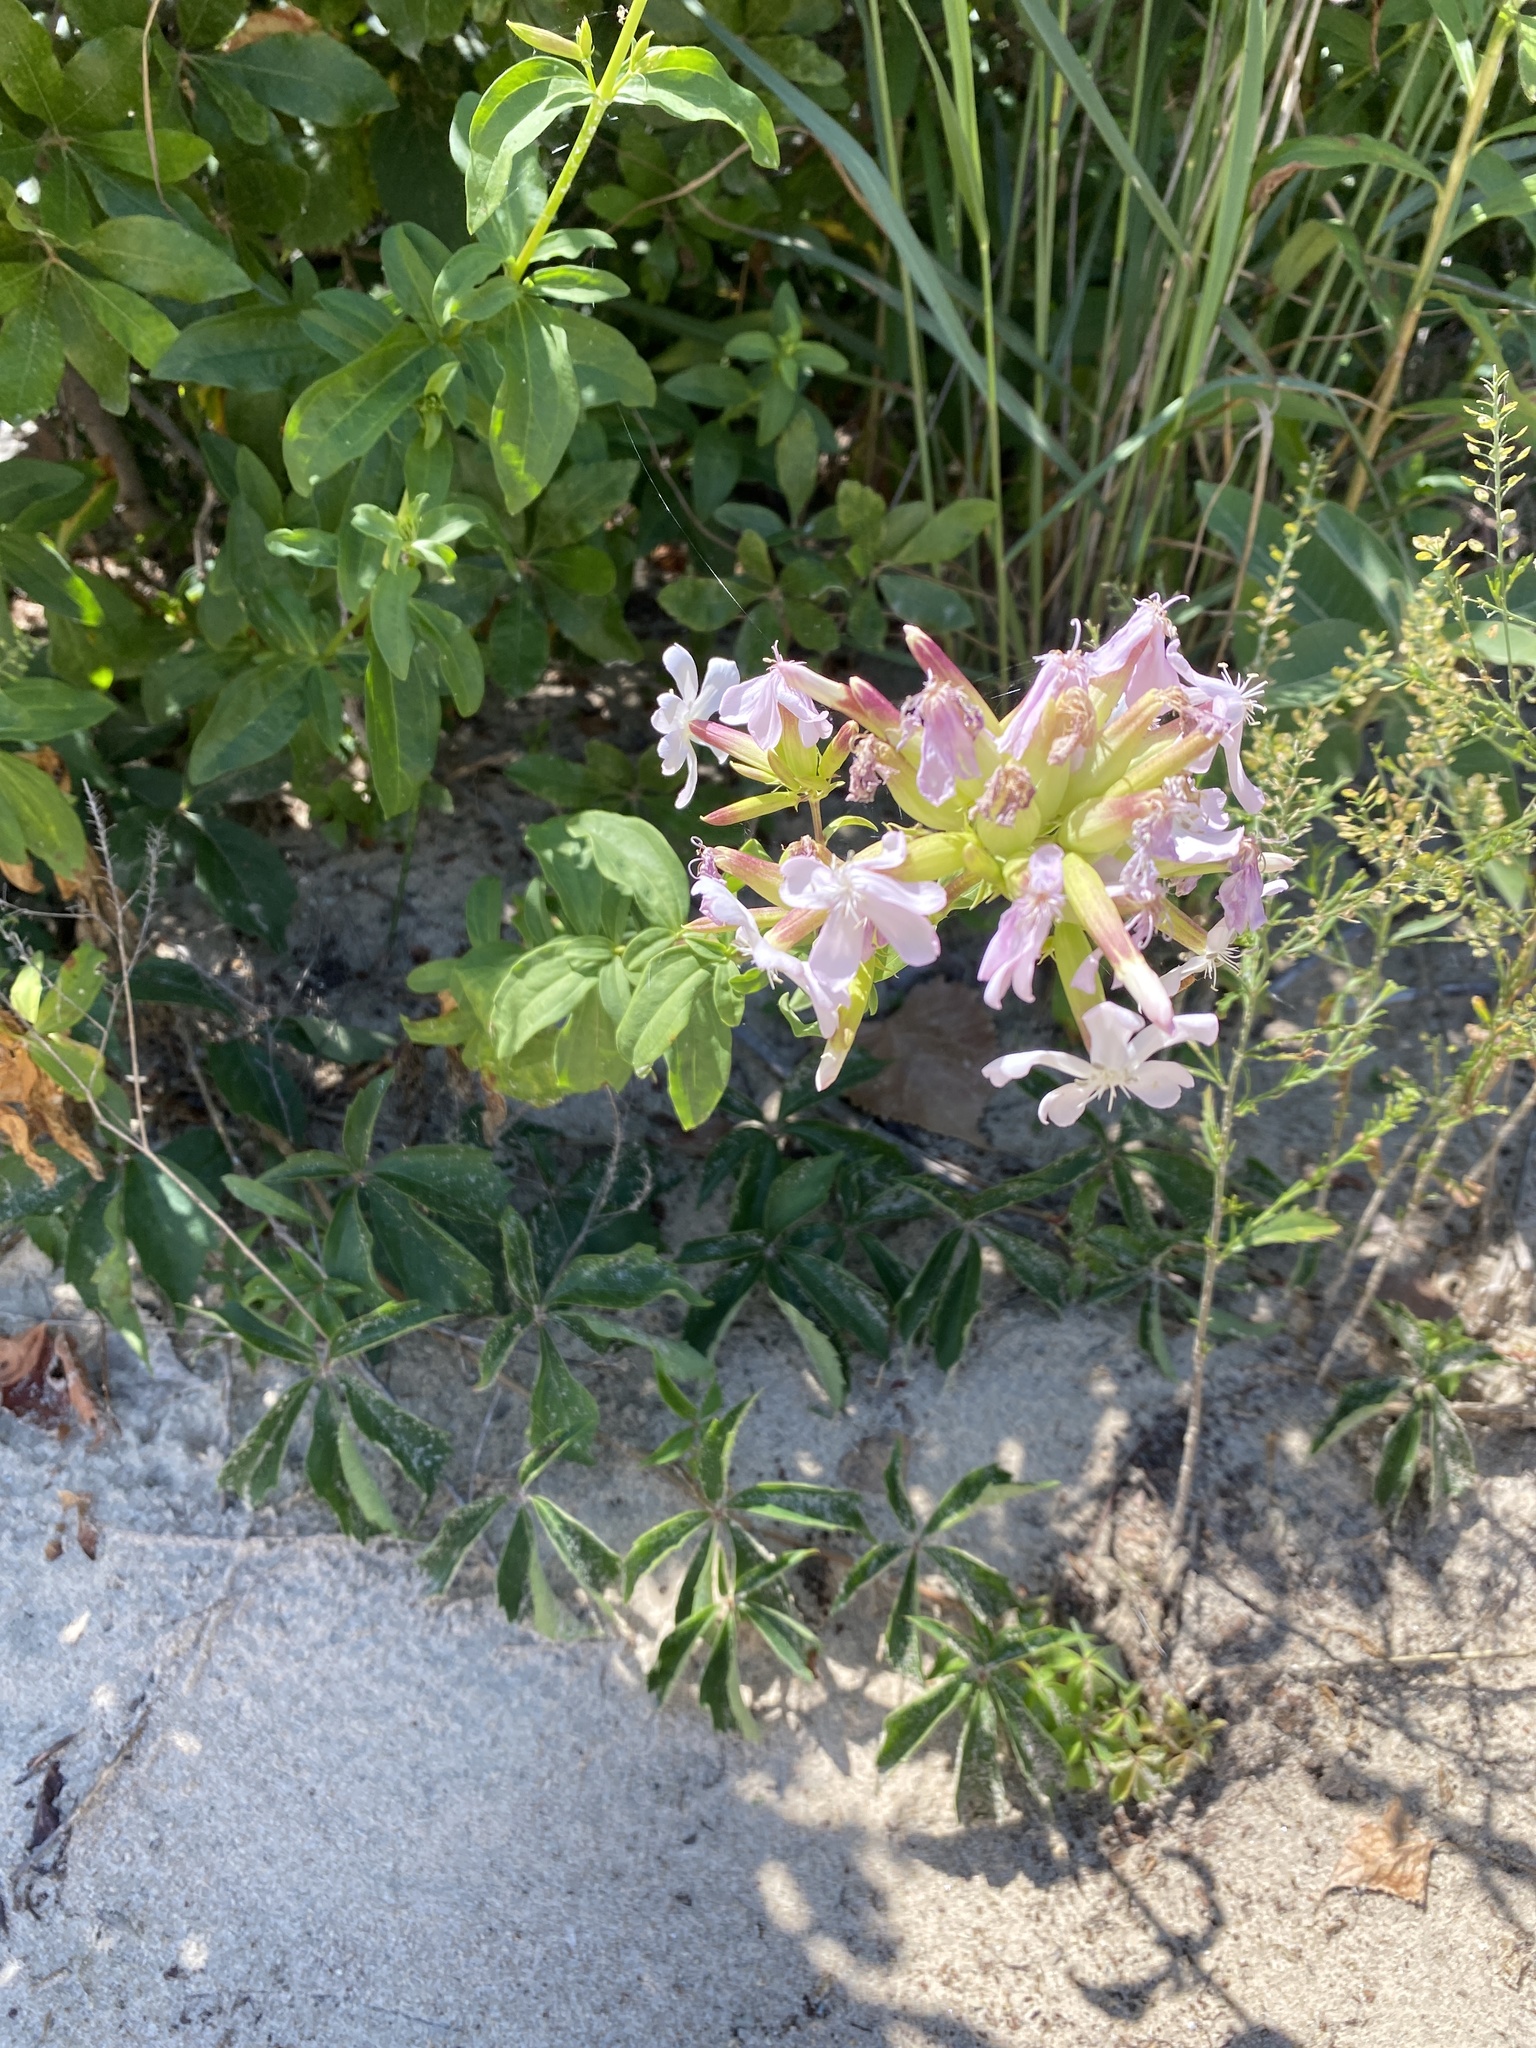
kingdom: Plantae
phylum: Tracheophyta
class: Magnoliopsida
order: Caryophyllales
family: Caryophyllaceae
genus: Saponaria
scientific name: Saponaria officinalis
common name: Soapwort
